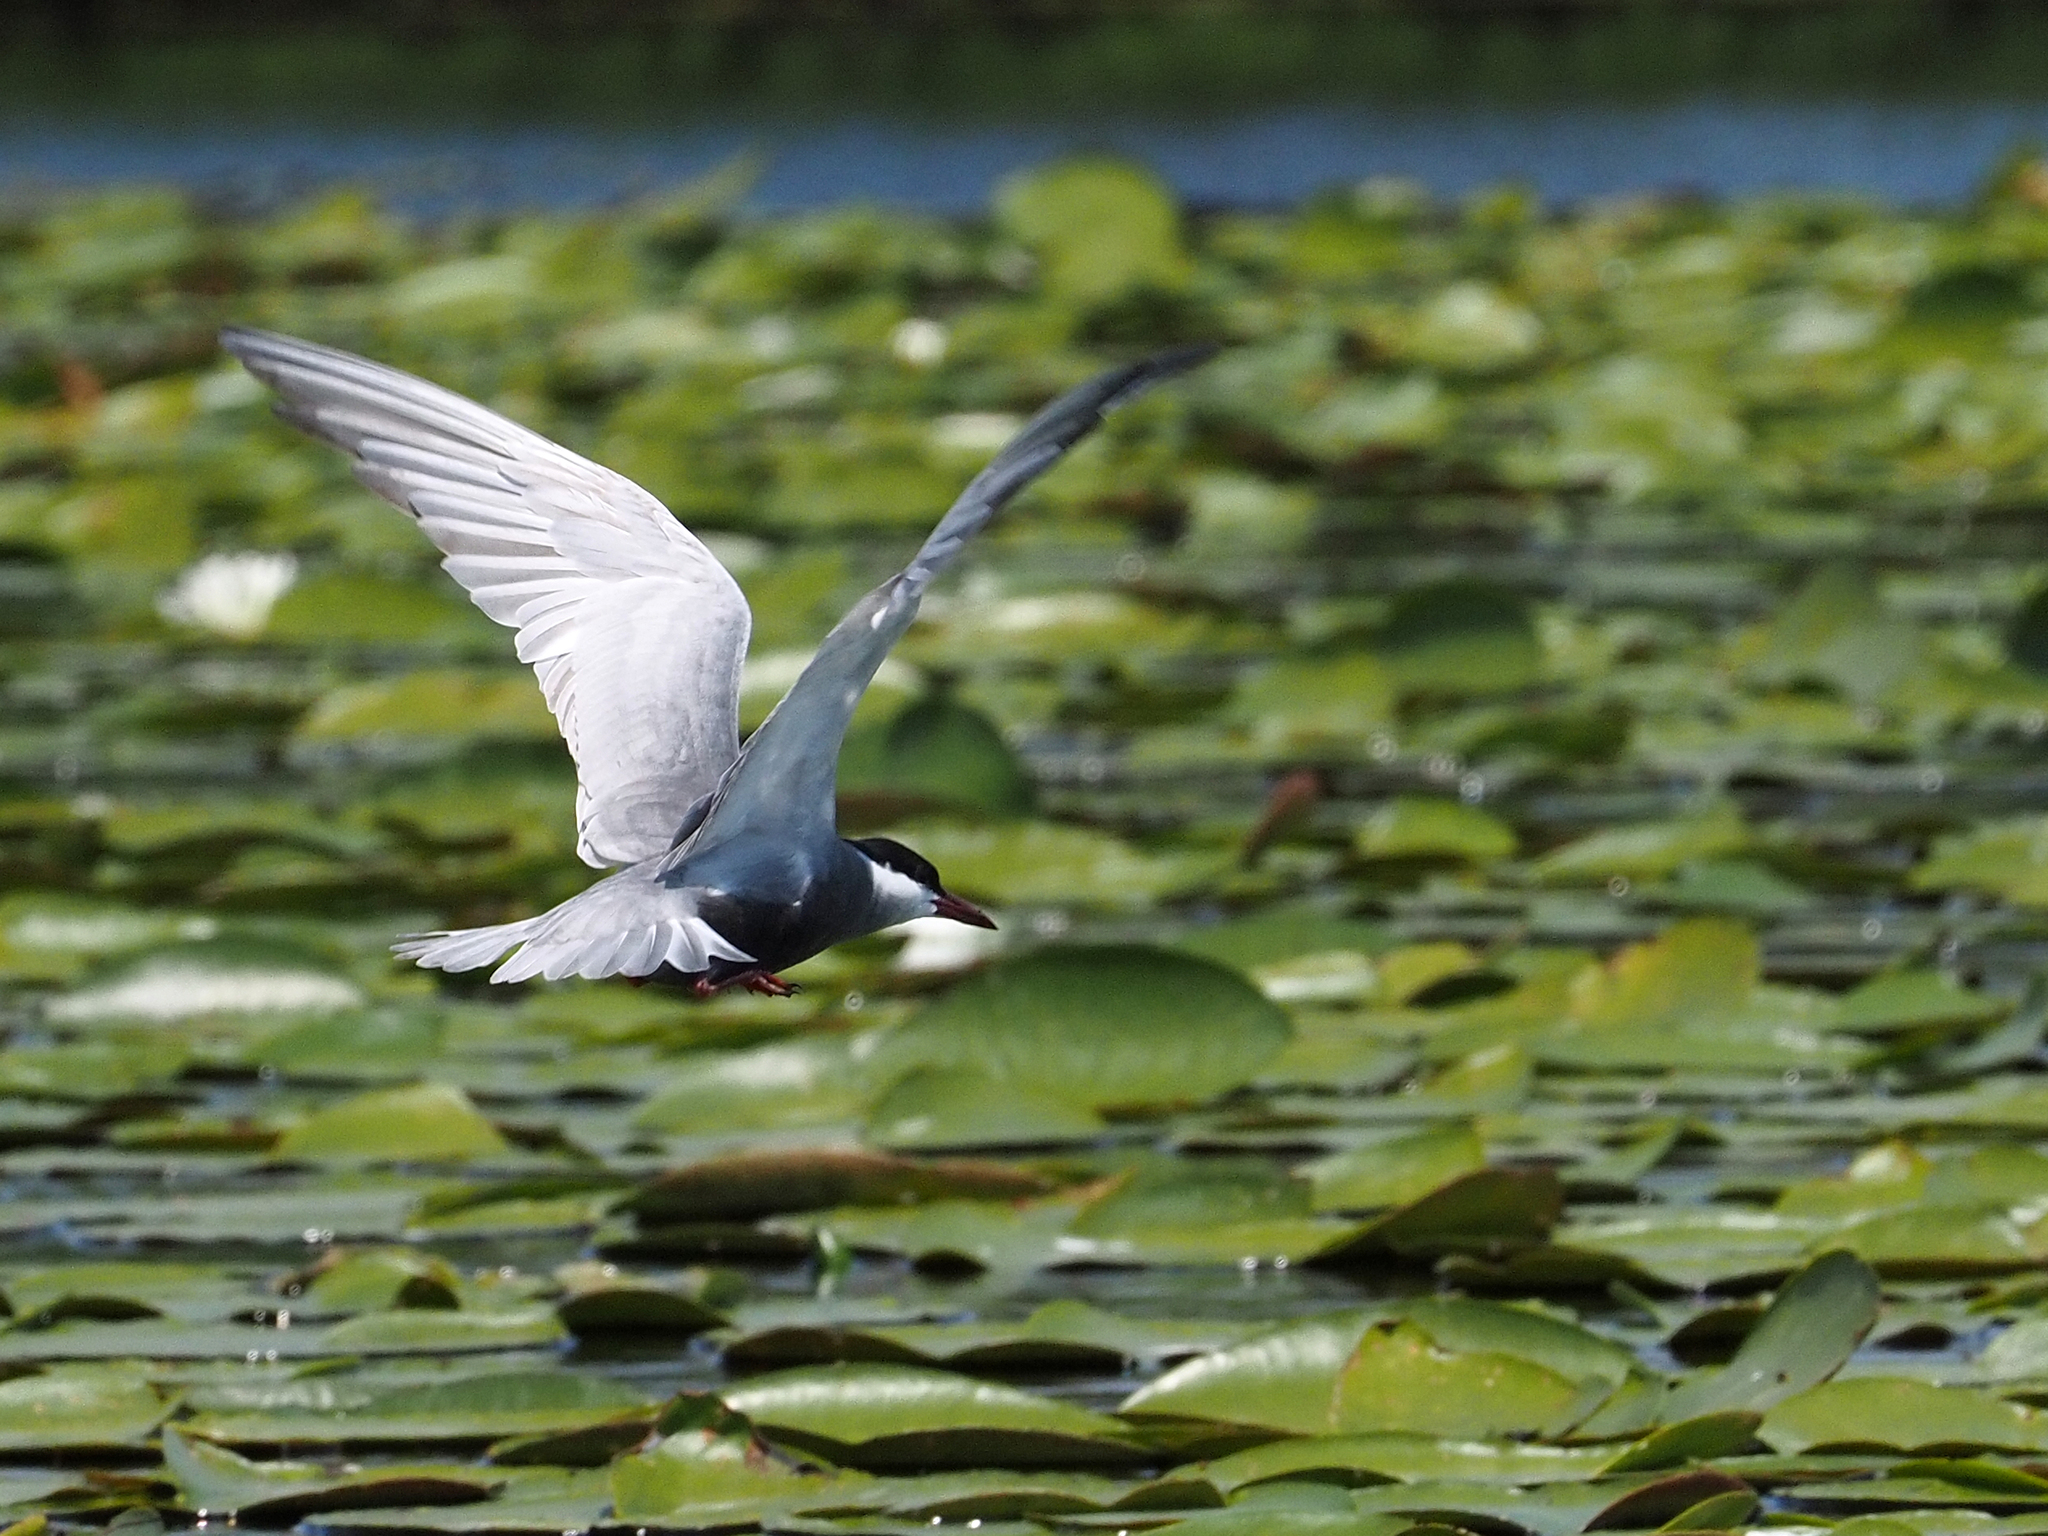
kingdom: Animalia
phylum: Chordata
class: Aves
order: Charadriiformes
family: Laridae
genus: Chlidonias
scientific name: Chlidonias hybrida
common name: Whiskered tern
